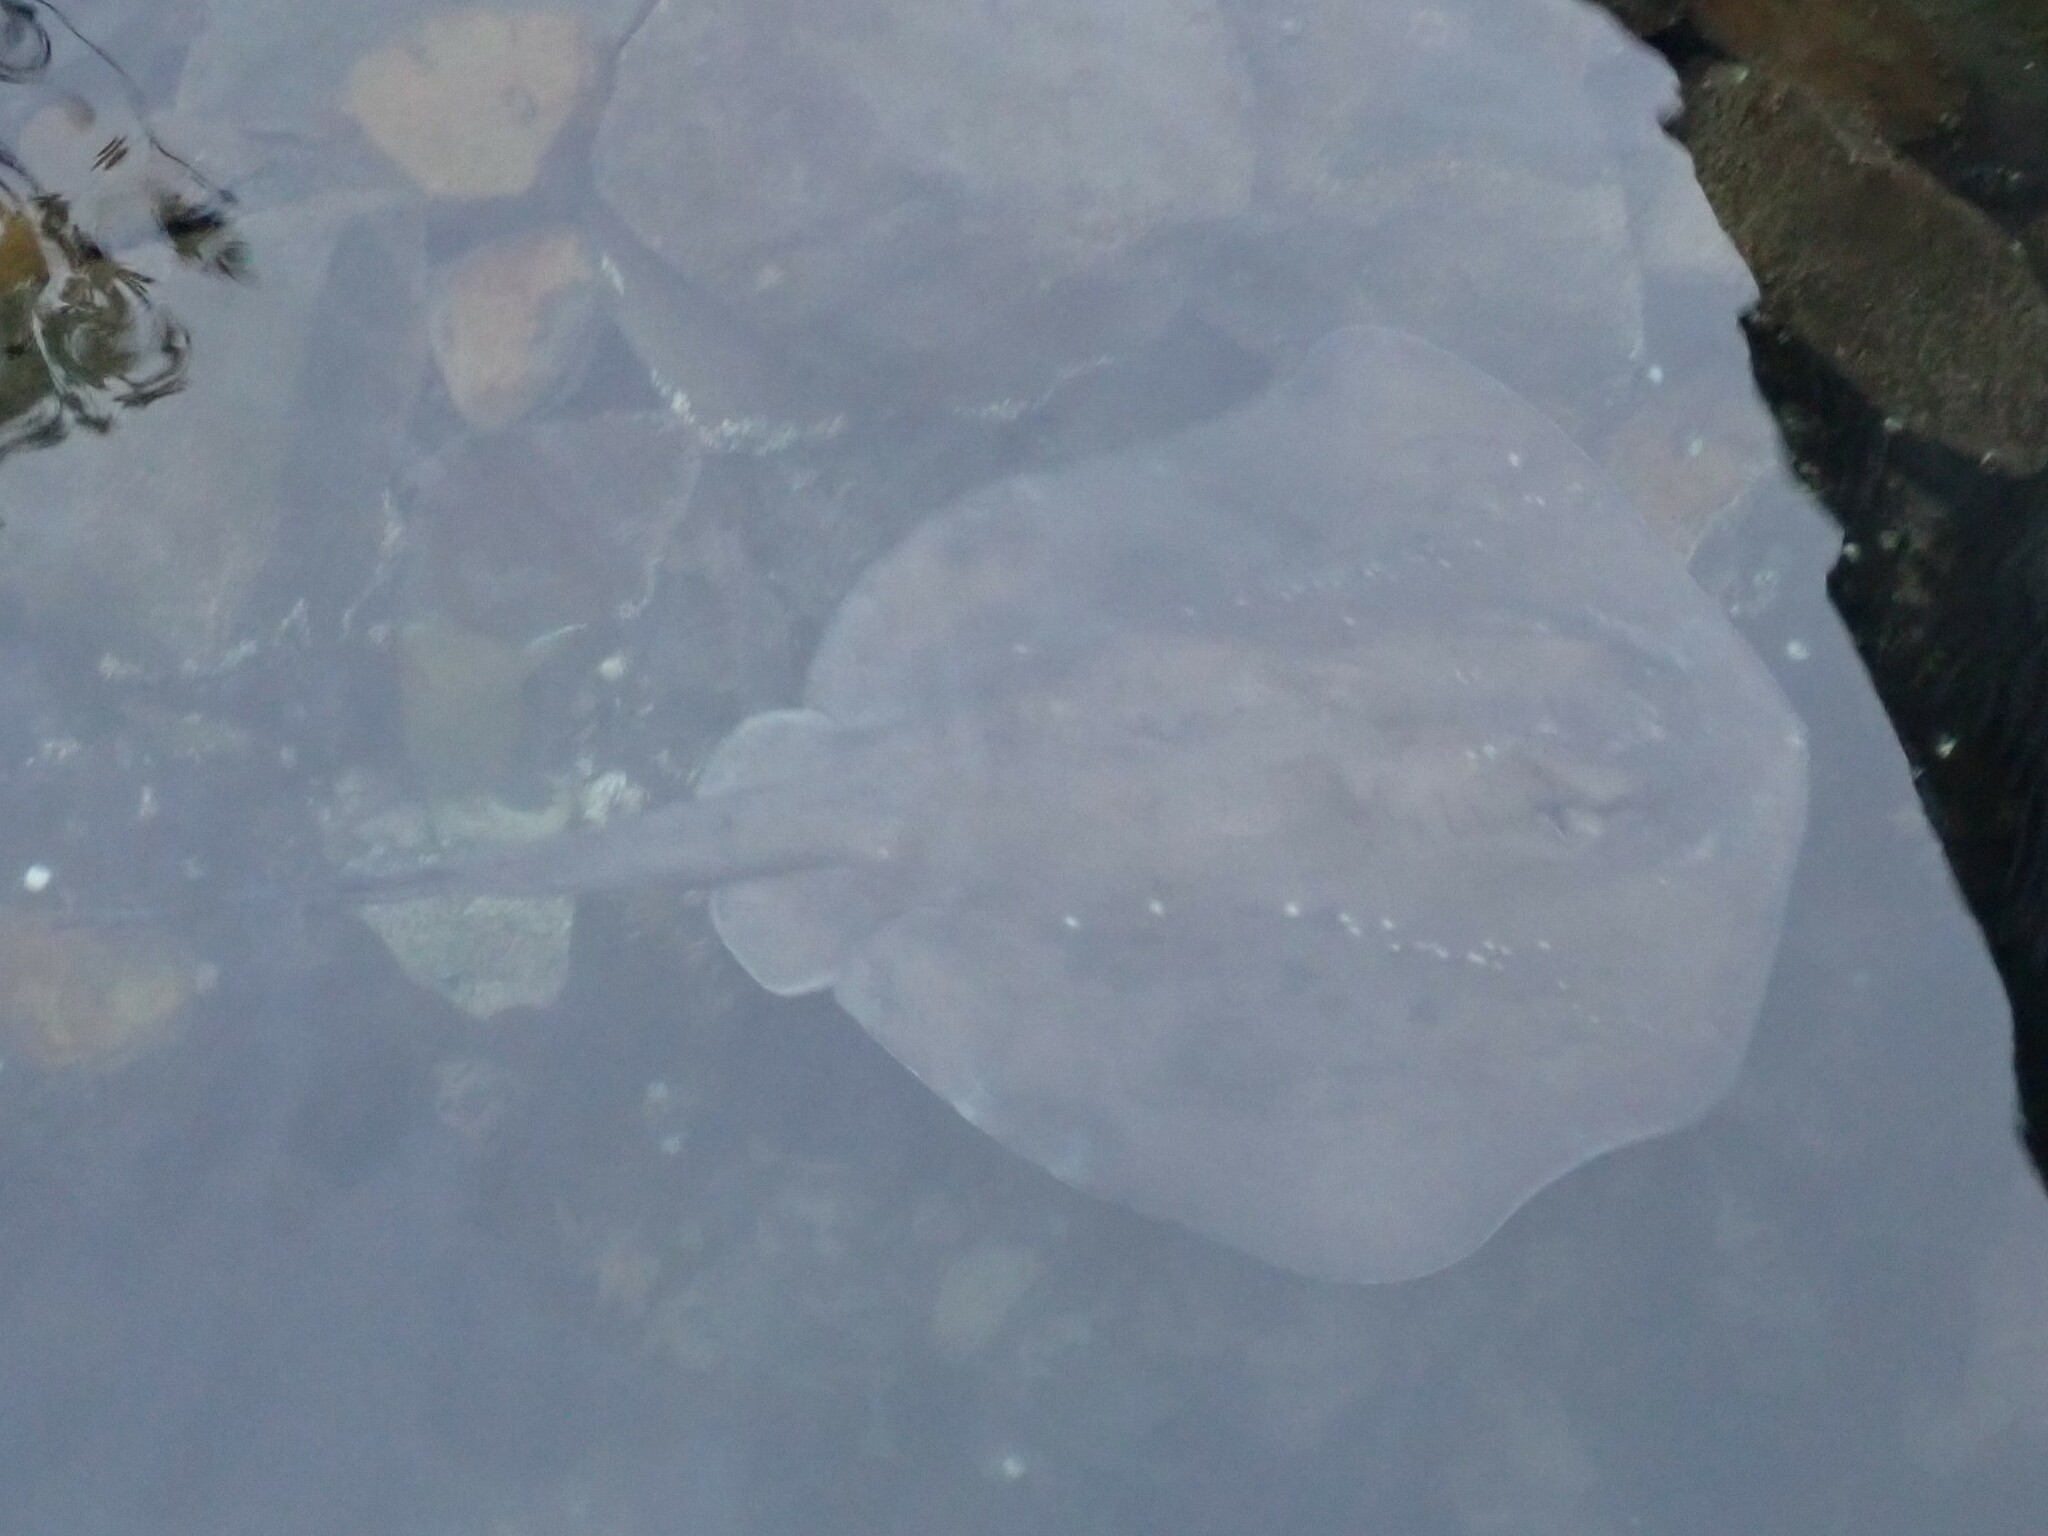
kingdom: Animalia
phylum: Chordata
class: Elasmobranchii
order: Myliobatiformes
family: Dasyatidae
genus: Bathytoshia
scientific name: Bathytoshia brevicaudata
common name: Short-tail stingray
